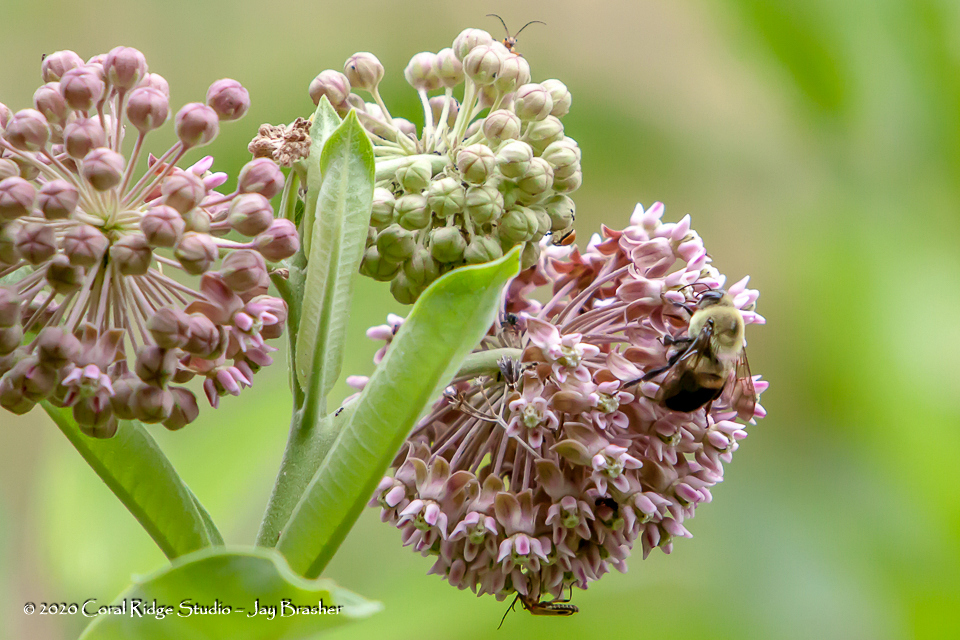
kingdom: Animalia
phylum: Arthropoda
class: Insecta
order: Hymenoptera
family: Apidae
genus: Bombus
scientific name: Bombus griseocollis
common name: Brown-belted bumble bee
